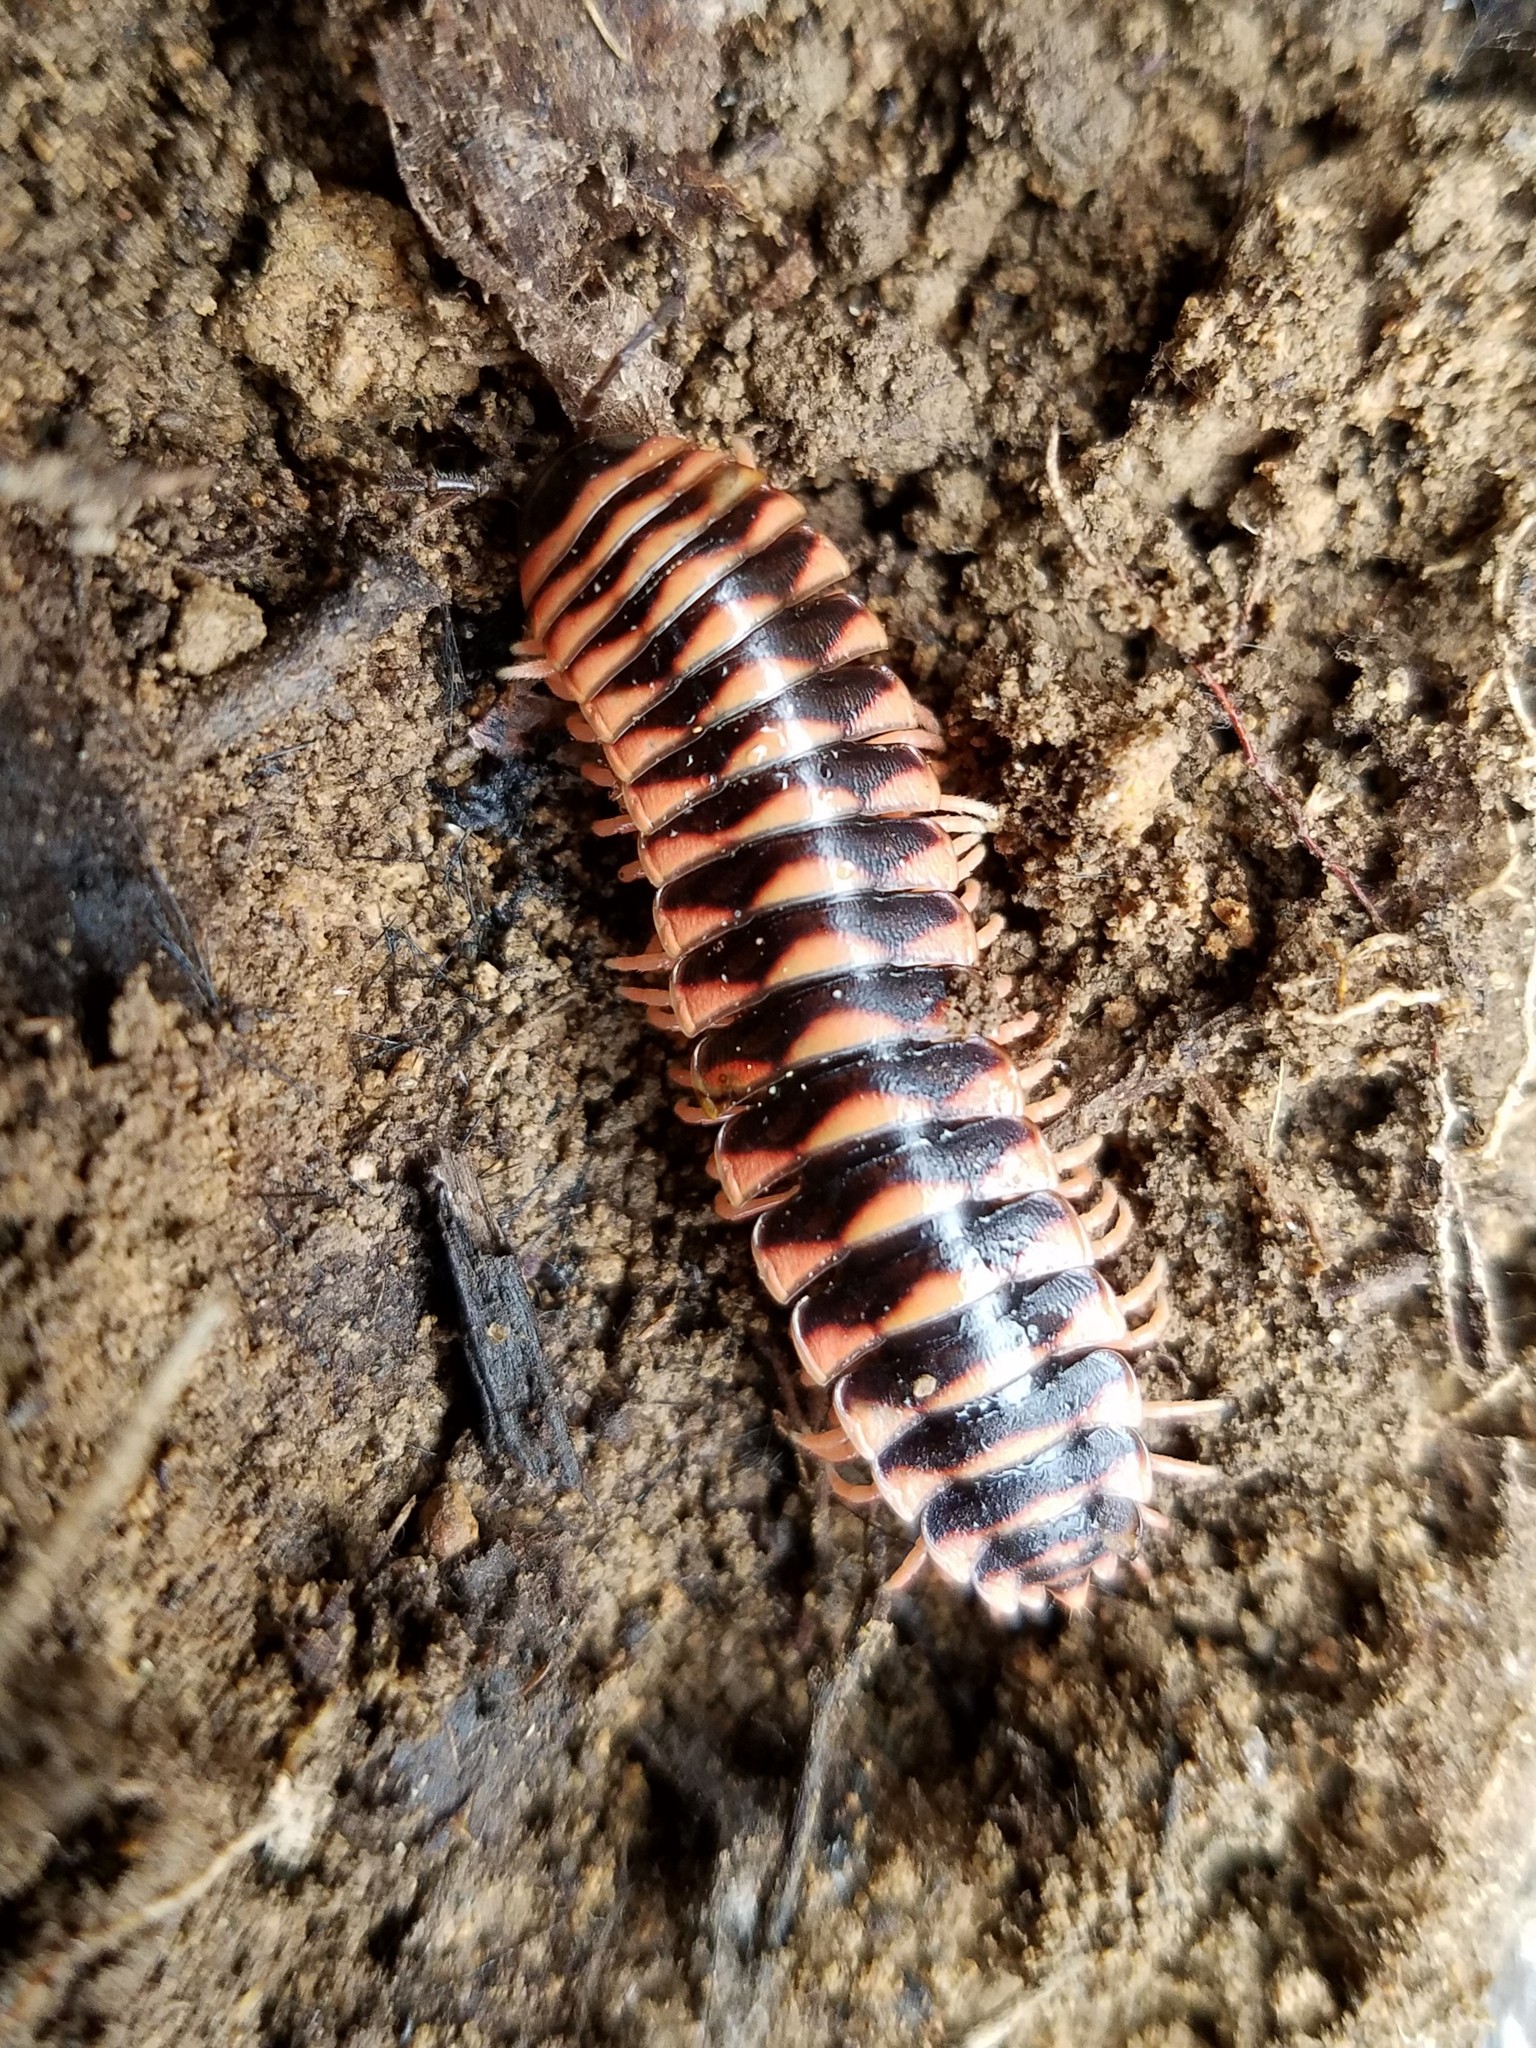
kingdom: Animalia
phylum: Arthropoda
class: Diplopoda
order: Polydesmida
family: Xystodesmidae
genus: Cherokia
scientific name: Cherokia georgiana
